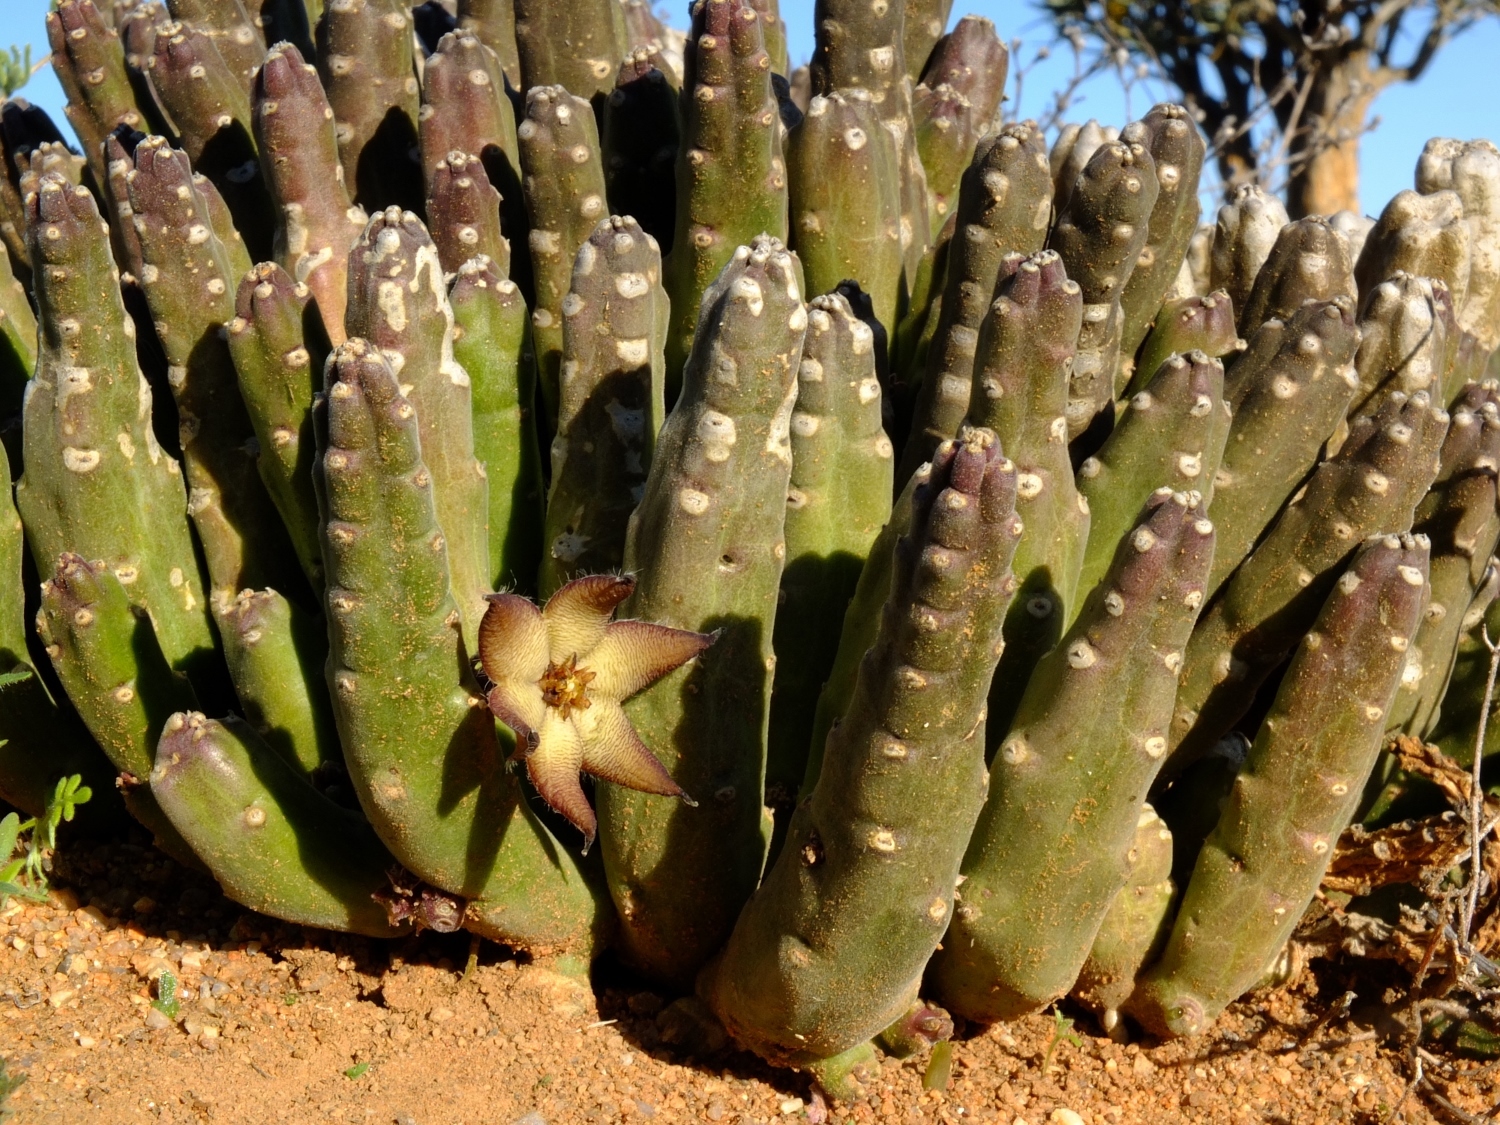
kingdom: Plantae
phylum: Tracheophyta
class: Magnoliopsida
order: Gentianales
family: Apocynaceae
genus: Ceropegia
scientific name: Ceropegia indocta
